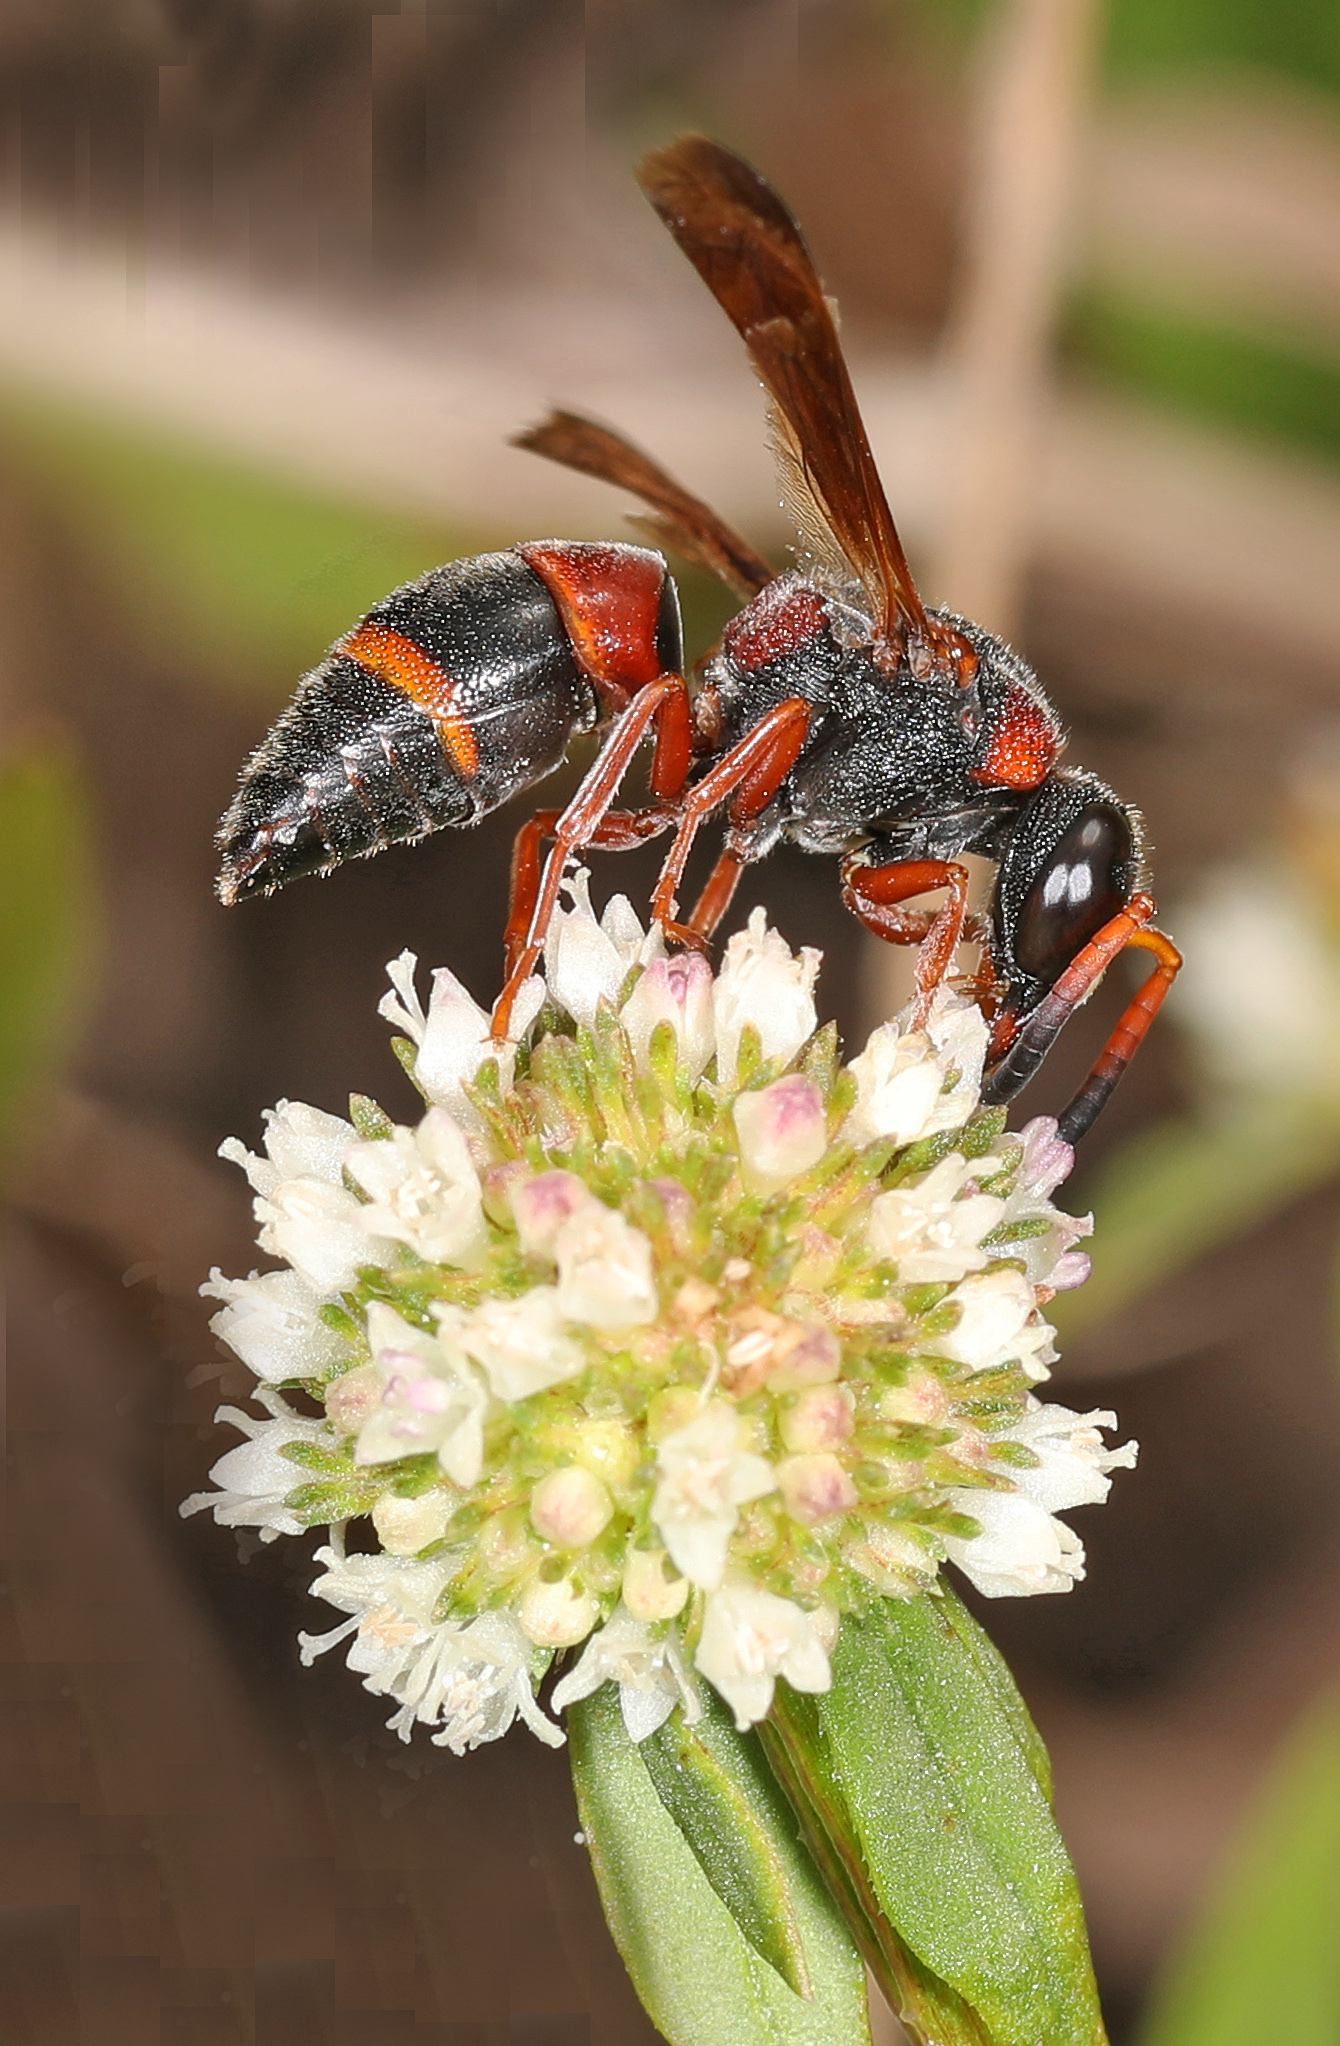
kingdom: Animalia
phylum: Arthropoda
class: Insecta
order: Hymenoptera
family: Eumenidae
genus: Pachodynerus
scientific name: Pachodynerus erynnis
